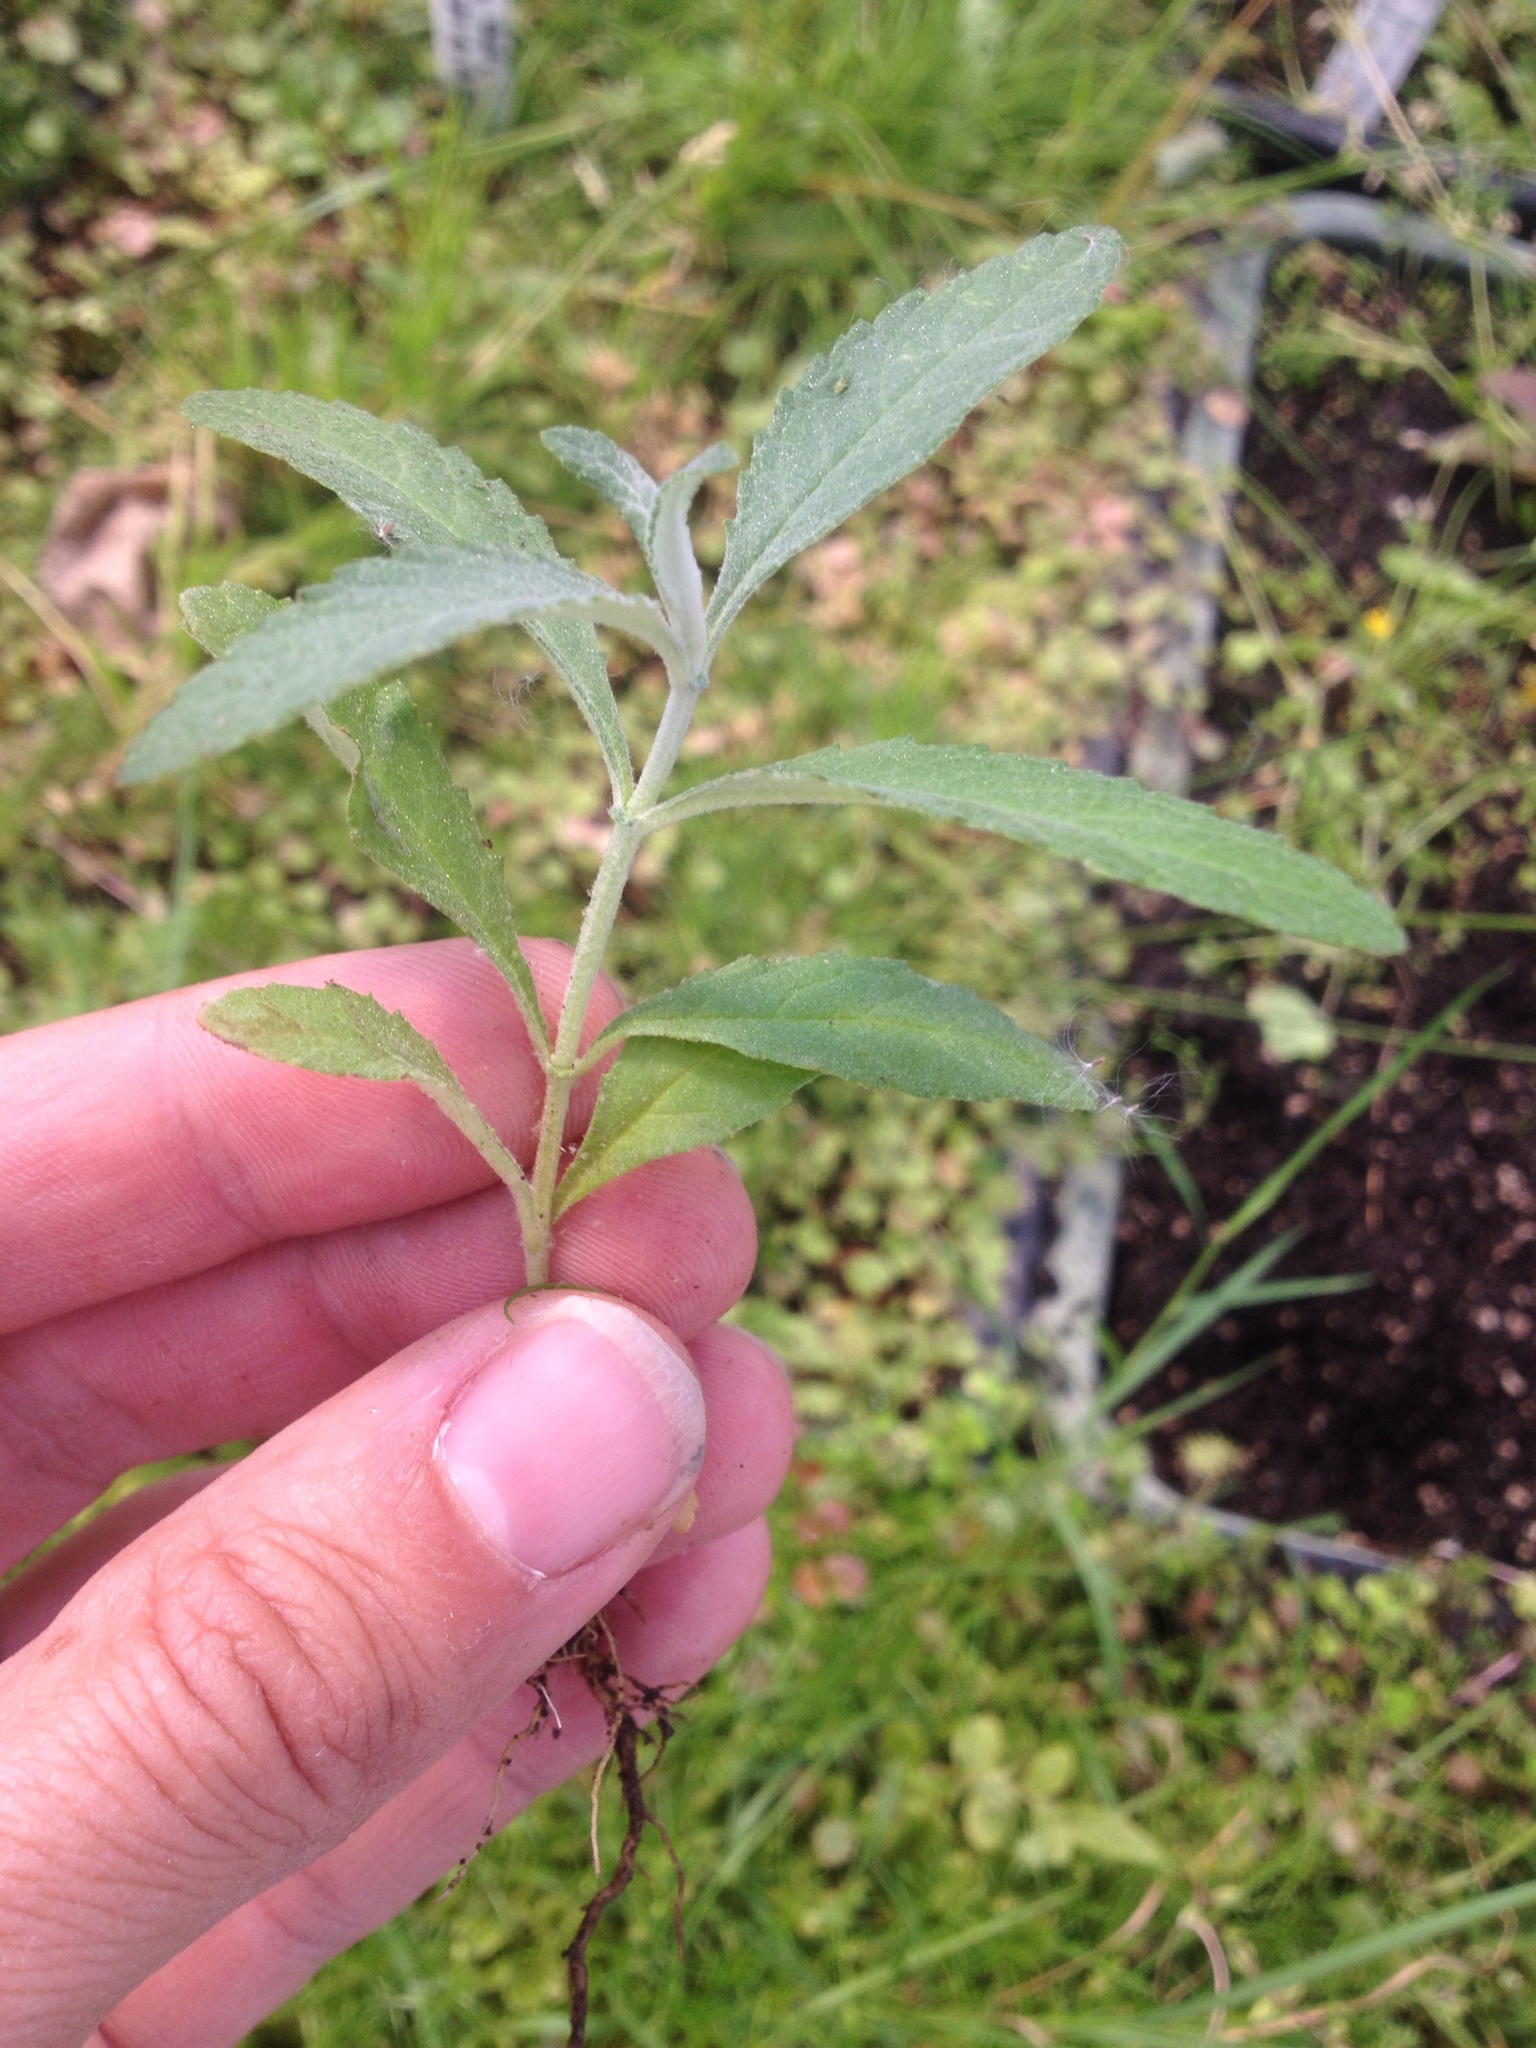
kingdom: Plantae
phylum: Tracheophyta
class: Magnoliopsida
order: Lamiales
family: Scrophulariaceae
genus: Buddleja
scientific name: Buddleja davidii
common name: Butterfly-bush
